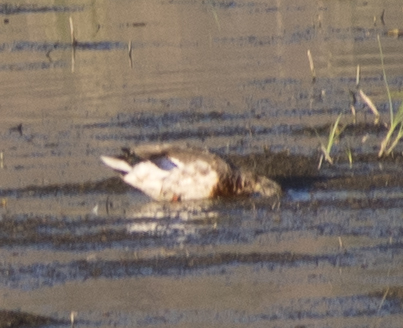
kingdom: Animalia
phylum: Chordata
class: Aves
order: Anseriformes
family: Anatidae
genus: Anas
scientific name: Anas platyrhynchos
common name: Mallard
